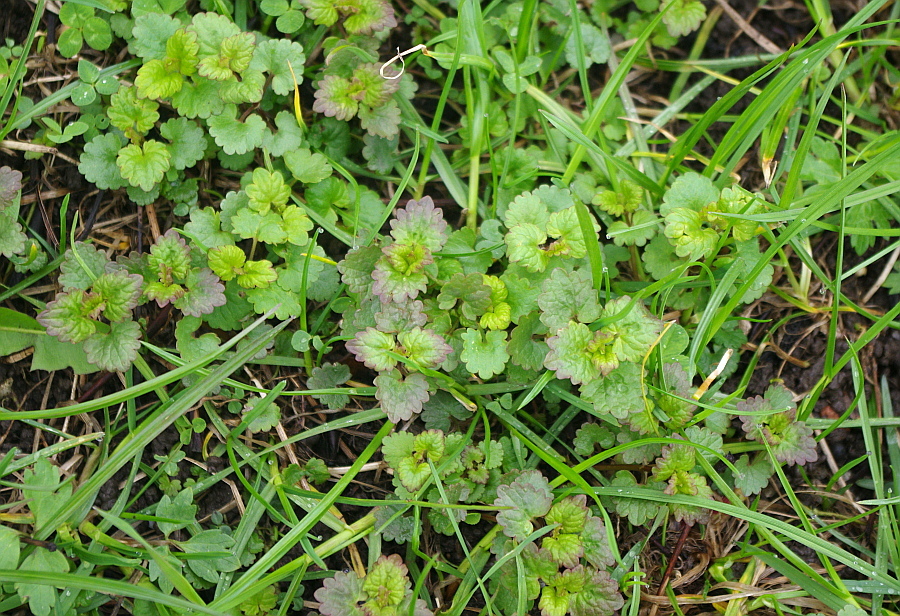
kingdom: Plantae
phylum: Tracheophyta
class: Magnoliopsida
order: Lamiales
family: Lamiaceae
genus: Glechoma
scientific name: Glechoma hederacea
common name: Ground ivy
